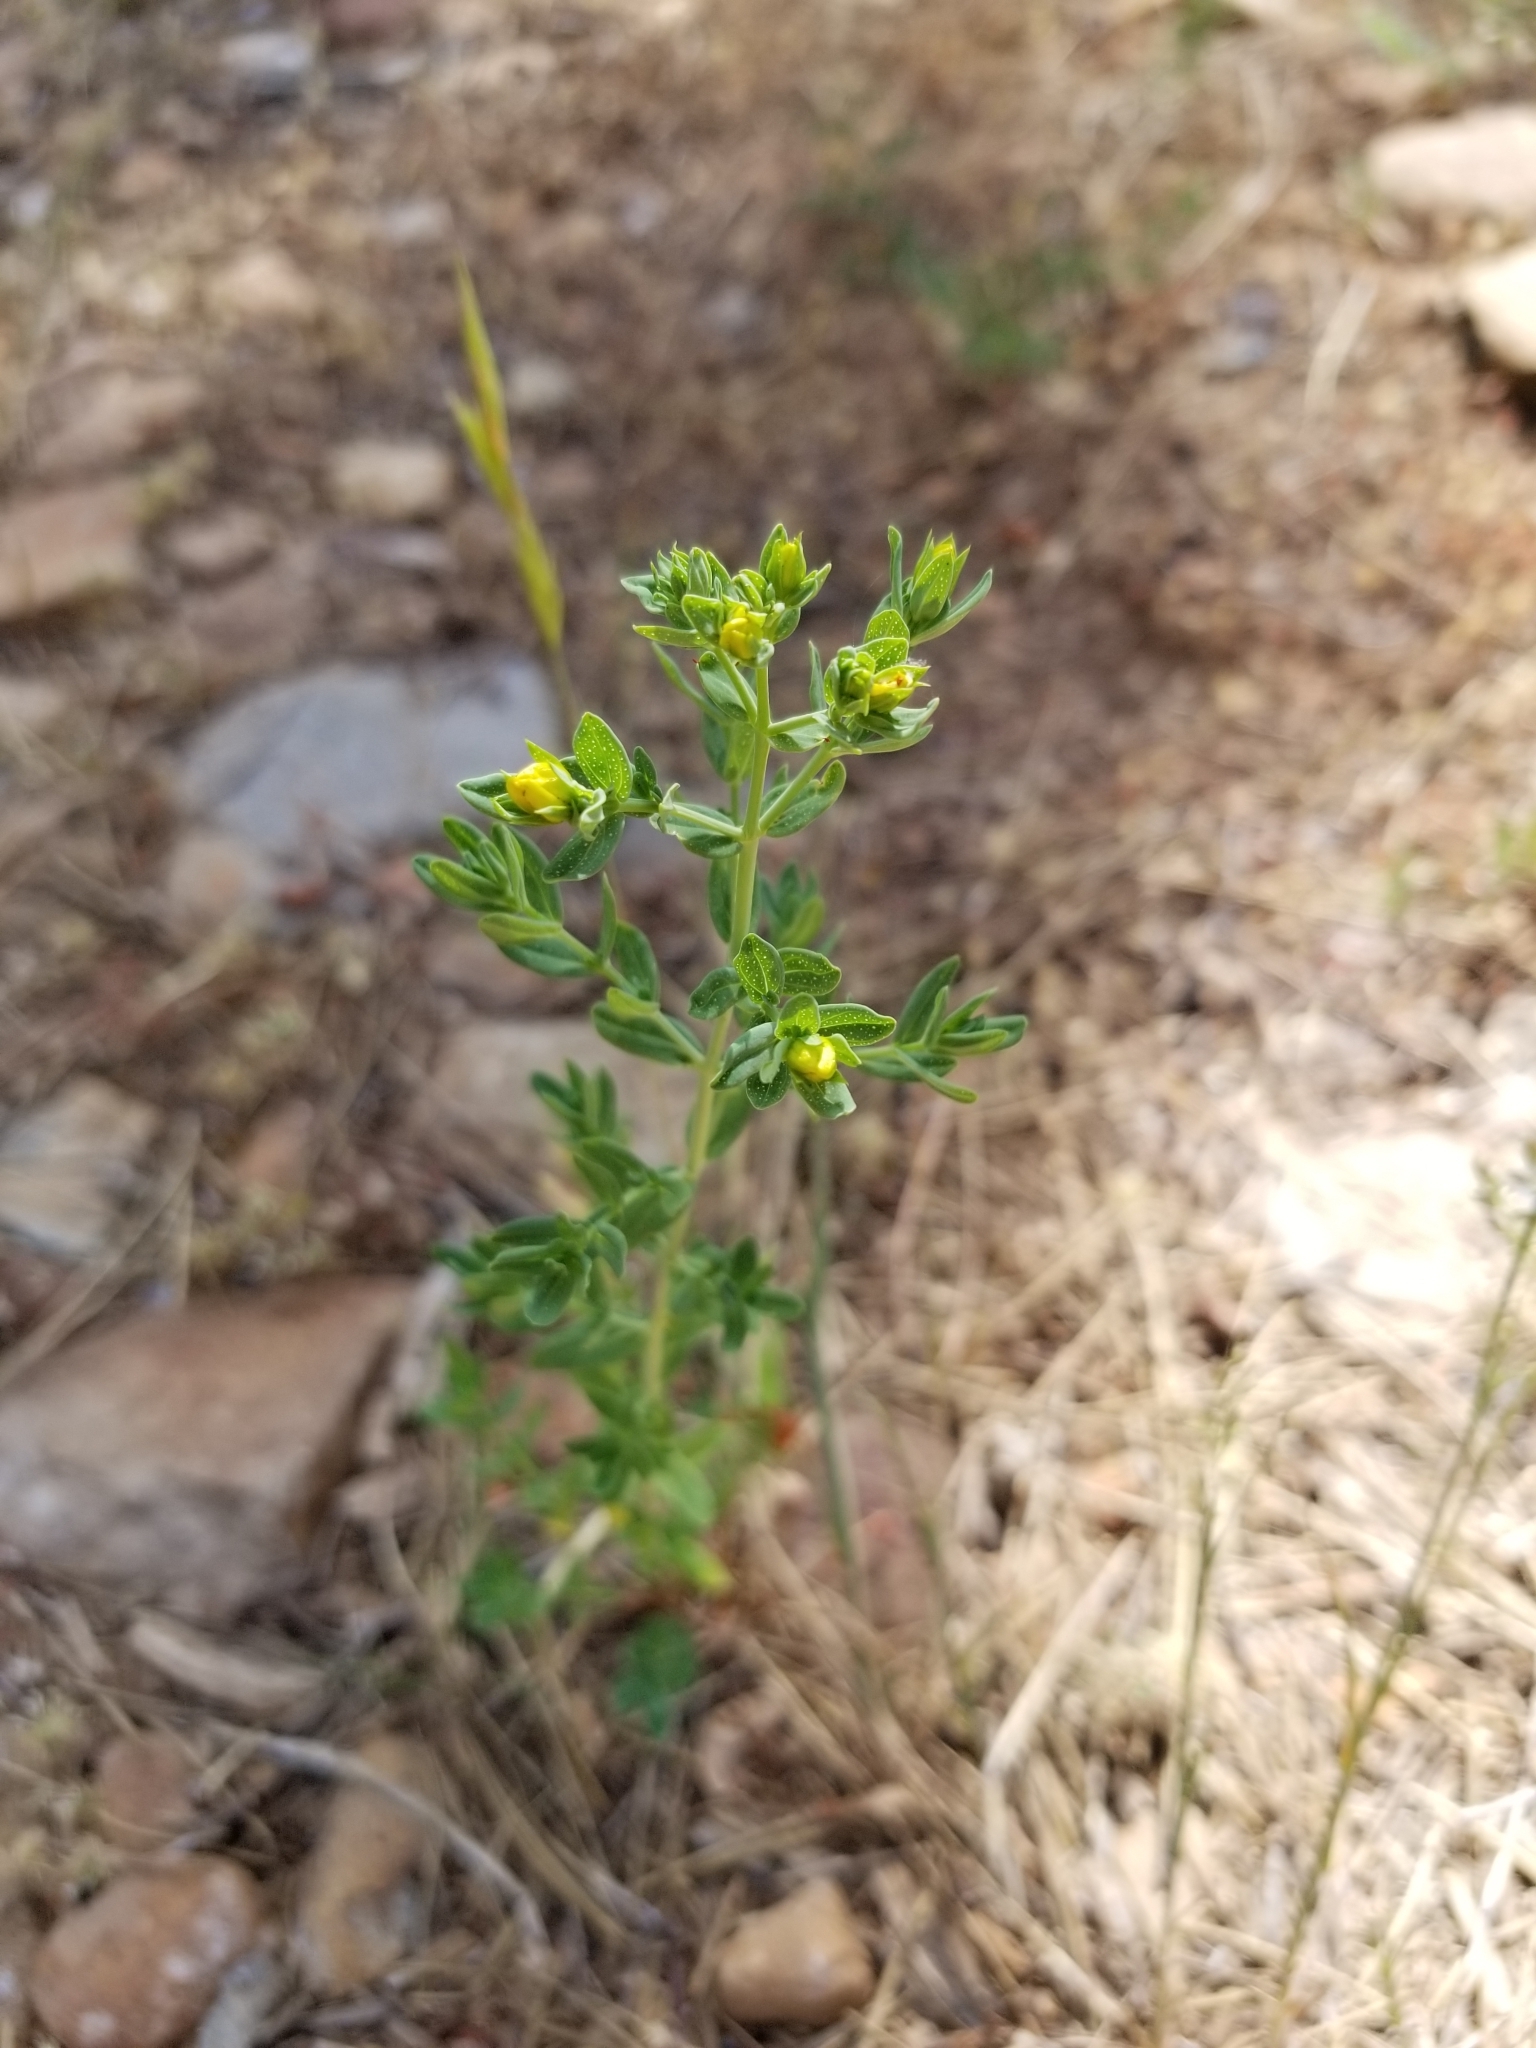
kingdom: Plantae
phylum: Tracheophyta
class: Magnoliopsida
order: Malpighiales
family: Hypericaceae
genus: Hypericum
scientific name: Hypericum perforatum
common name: Common st. johnswort
